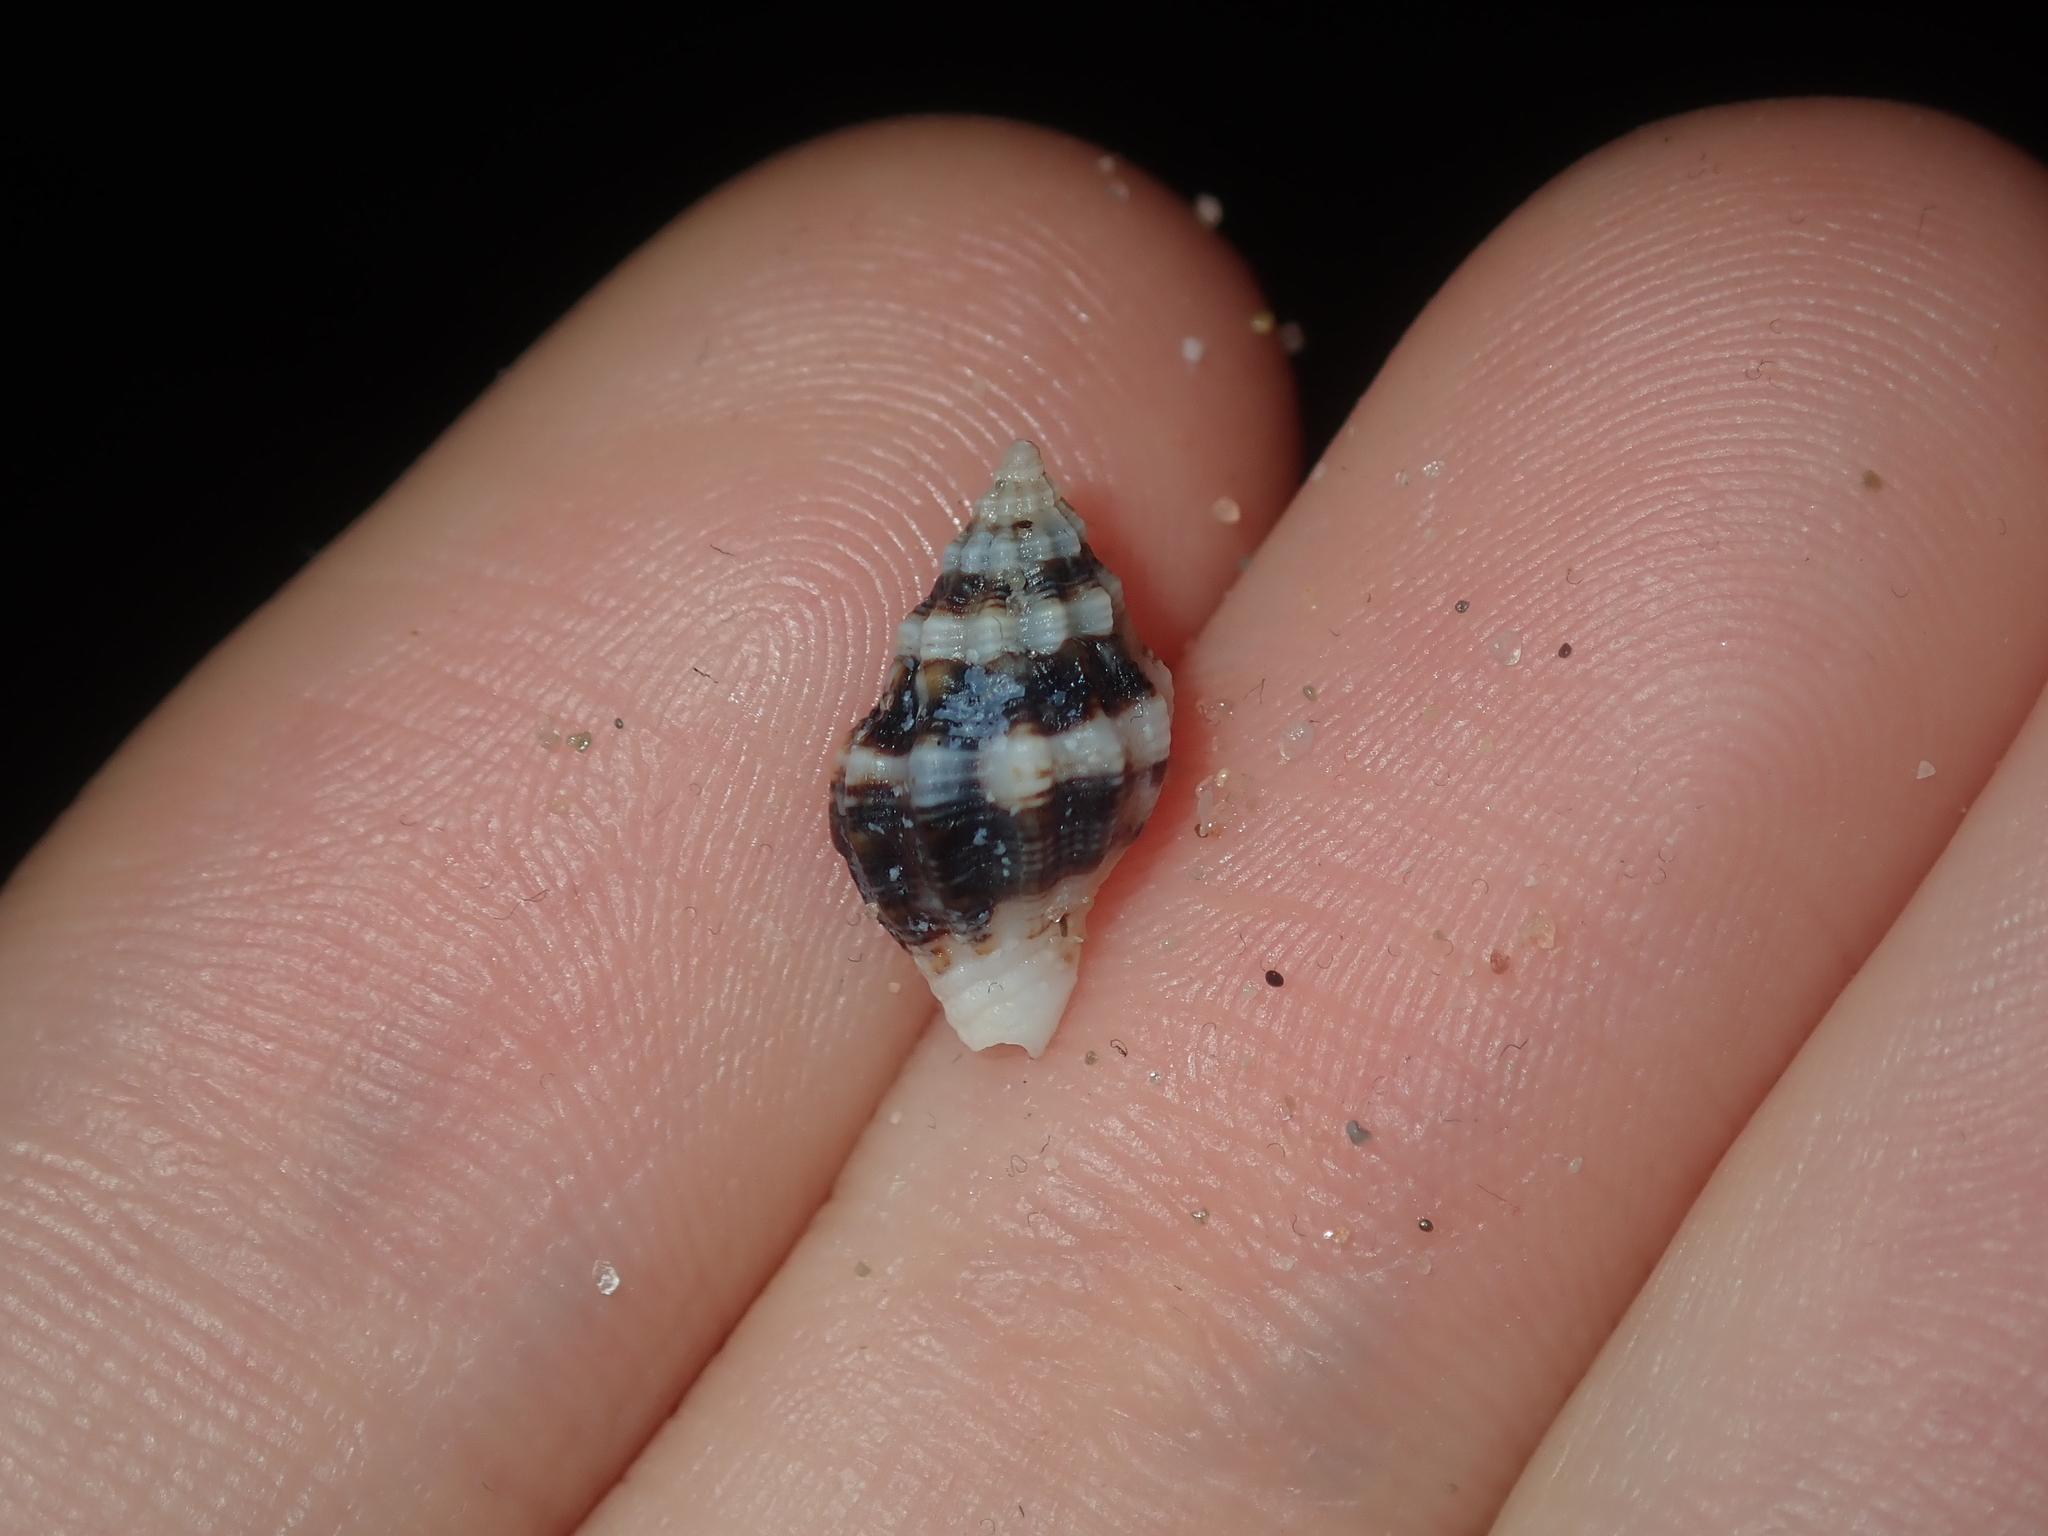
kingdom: Animalia
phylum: Mollusca
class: Gastropoda
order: Neogastropoda
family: Muricidae
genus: Cronia
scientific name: Cronia avellana
